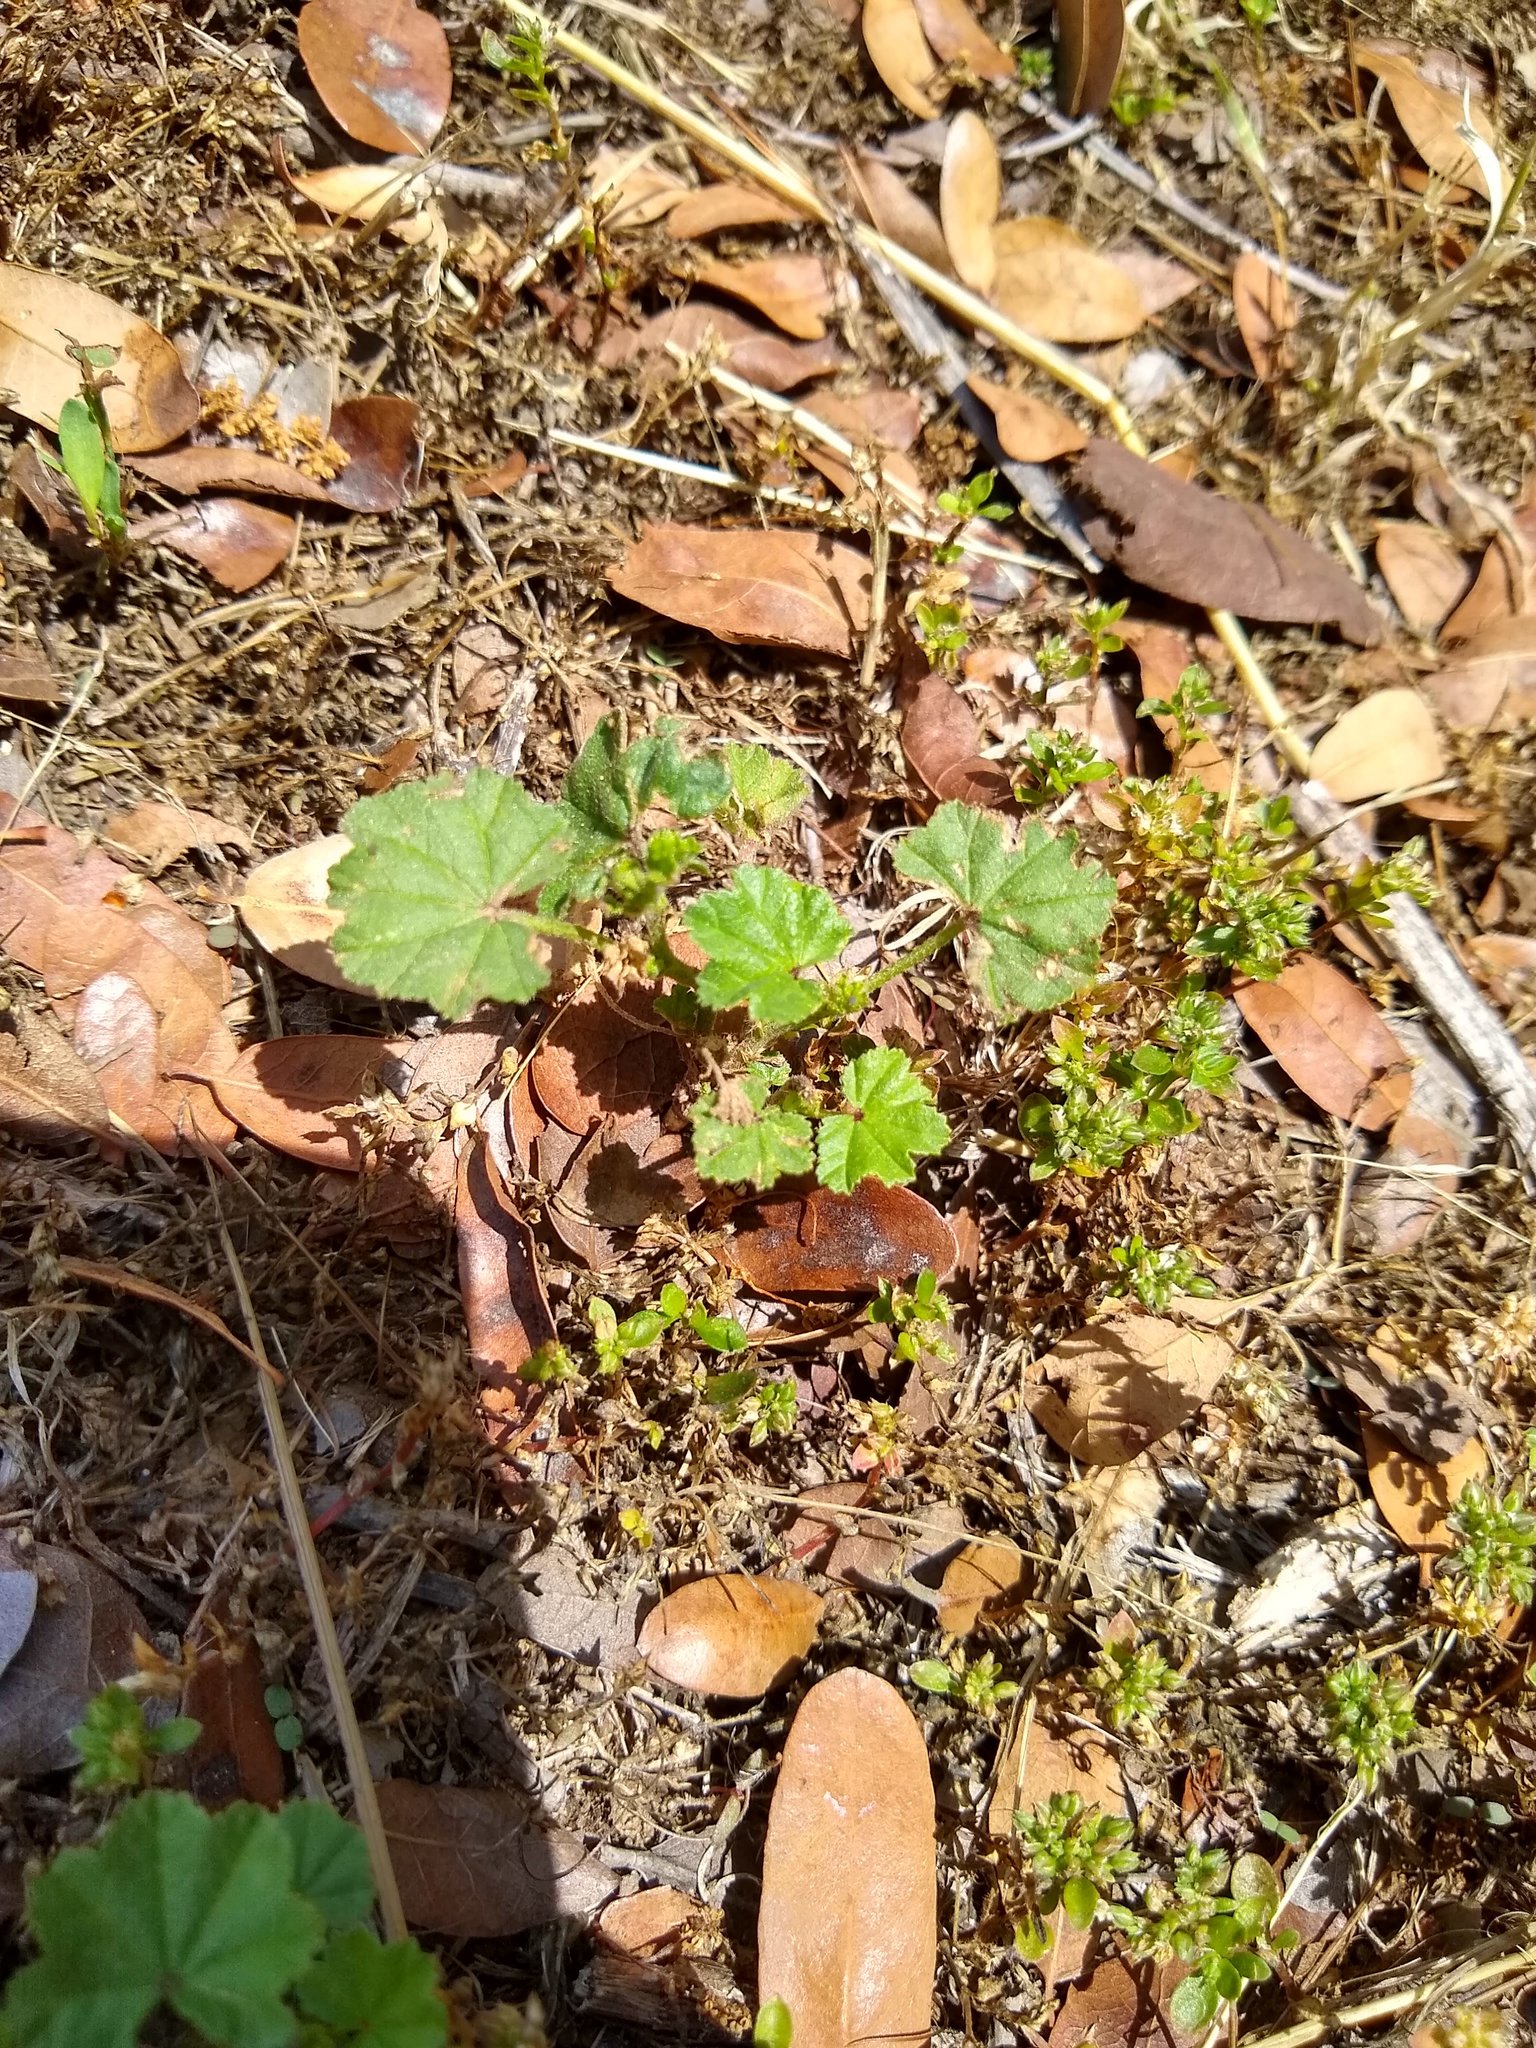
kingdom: Plantae
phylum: Tracheophyta
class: Magnoliopsida
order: Malvales
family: Malvaceae
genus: Malva
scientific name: Malva
